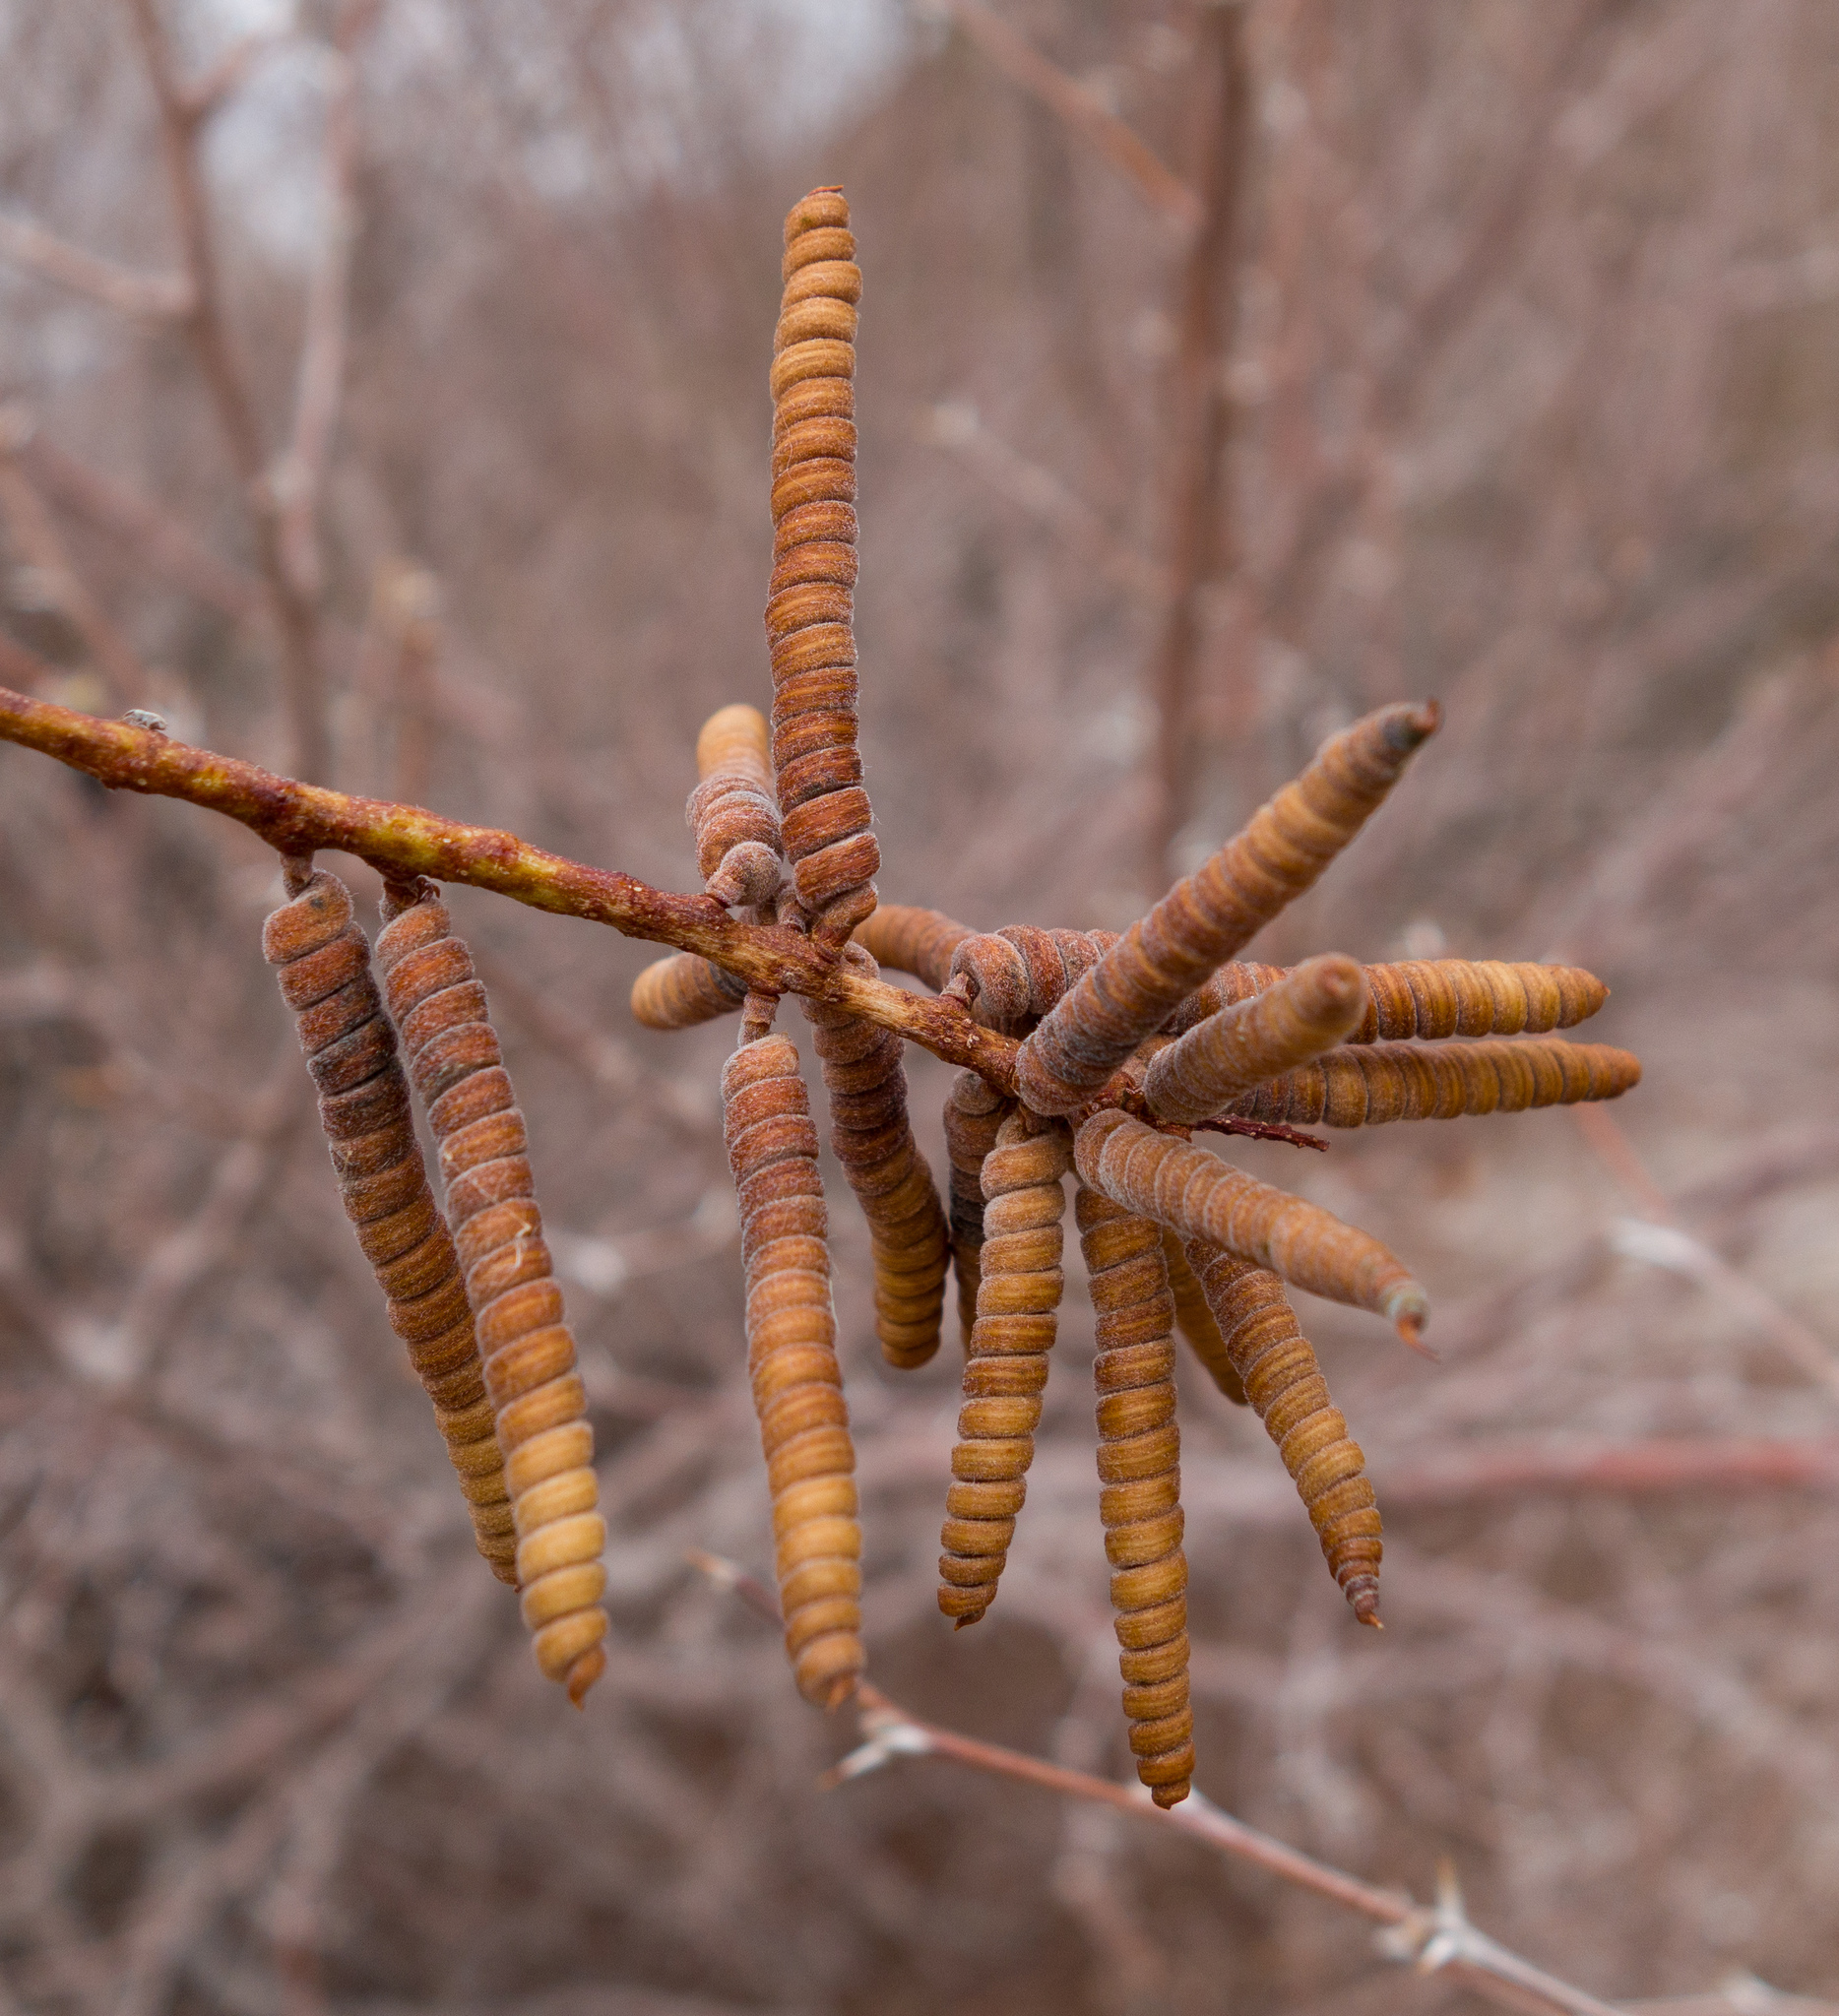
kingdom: Plantae
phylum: Tracheophyta
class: Magnoliopsida
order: Fabales
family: Fabaceae
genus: Prosopis
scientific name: Prosopis pubescens
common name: Screw-bean
